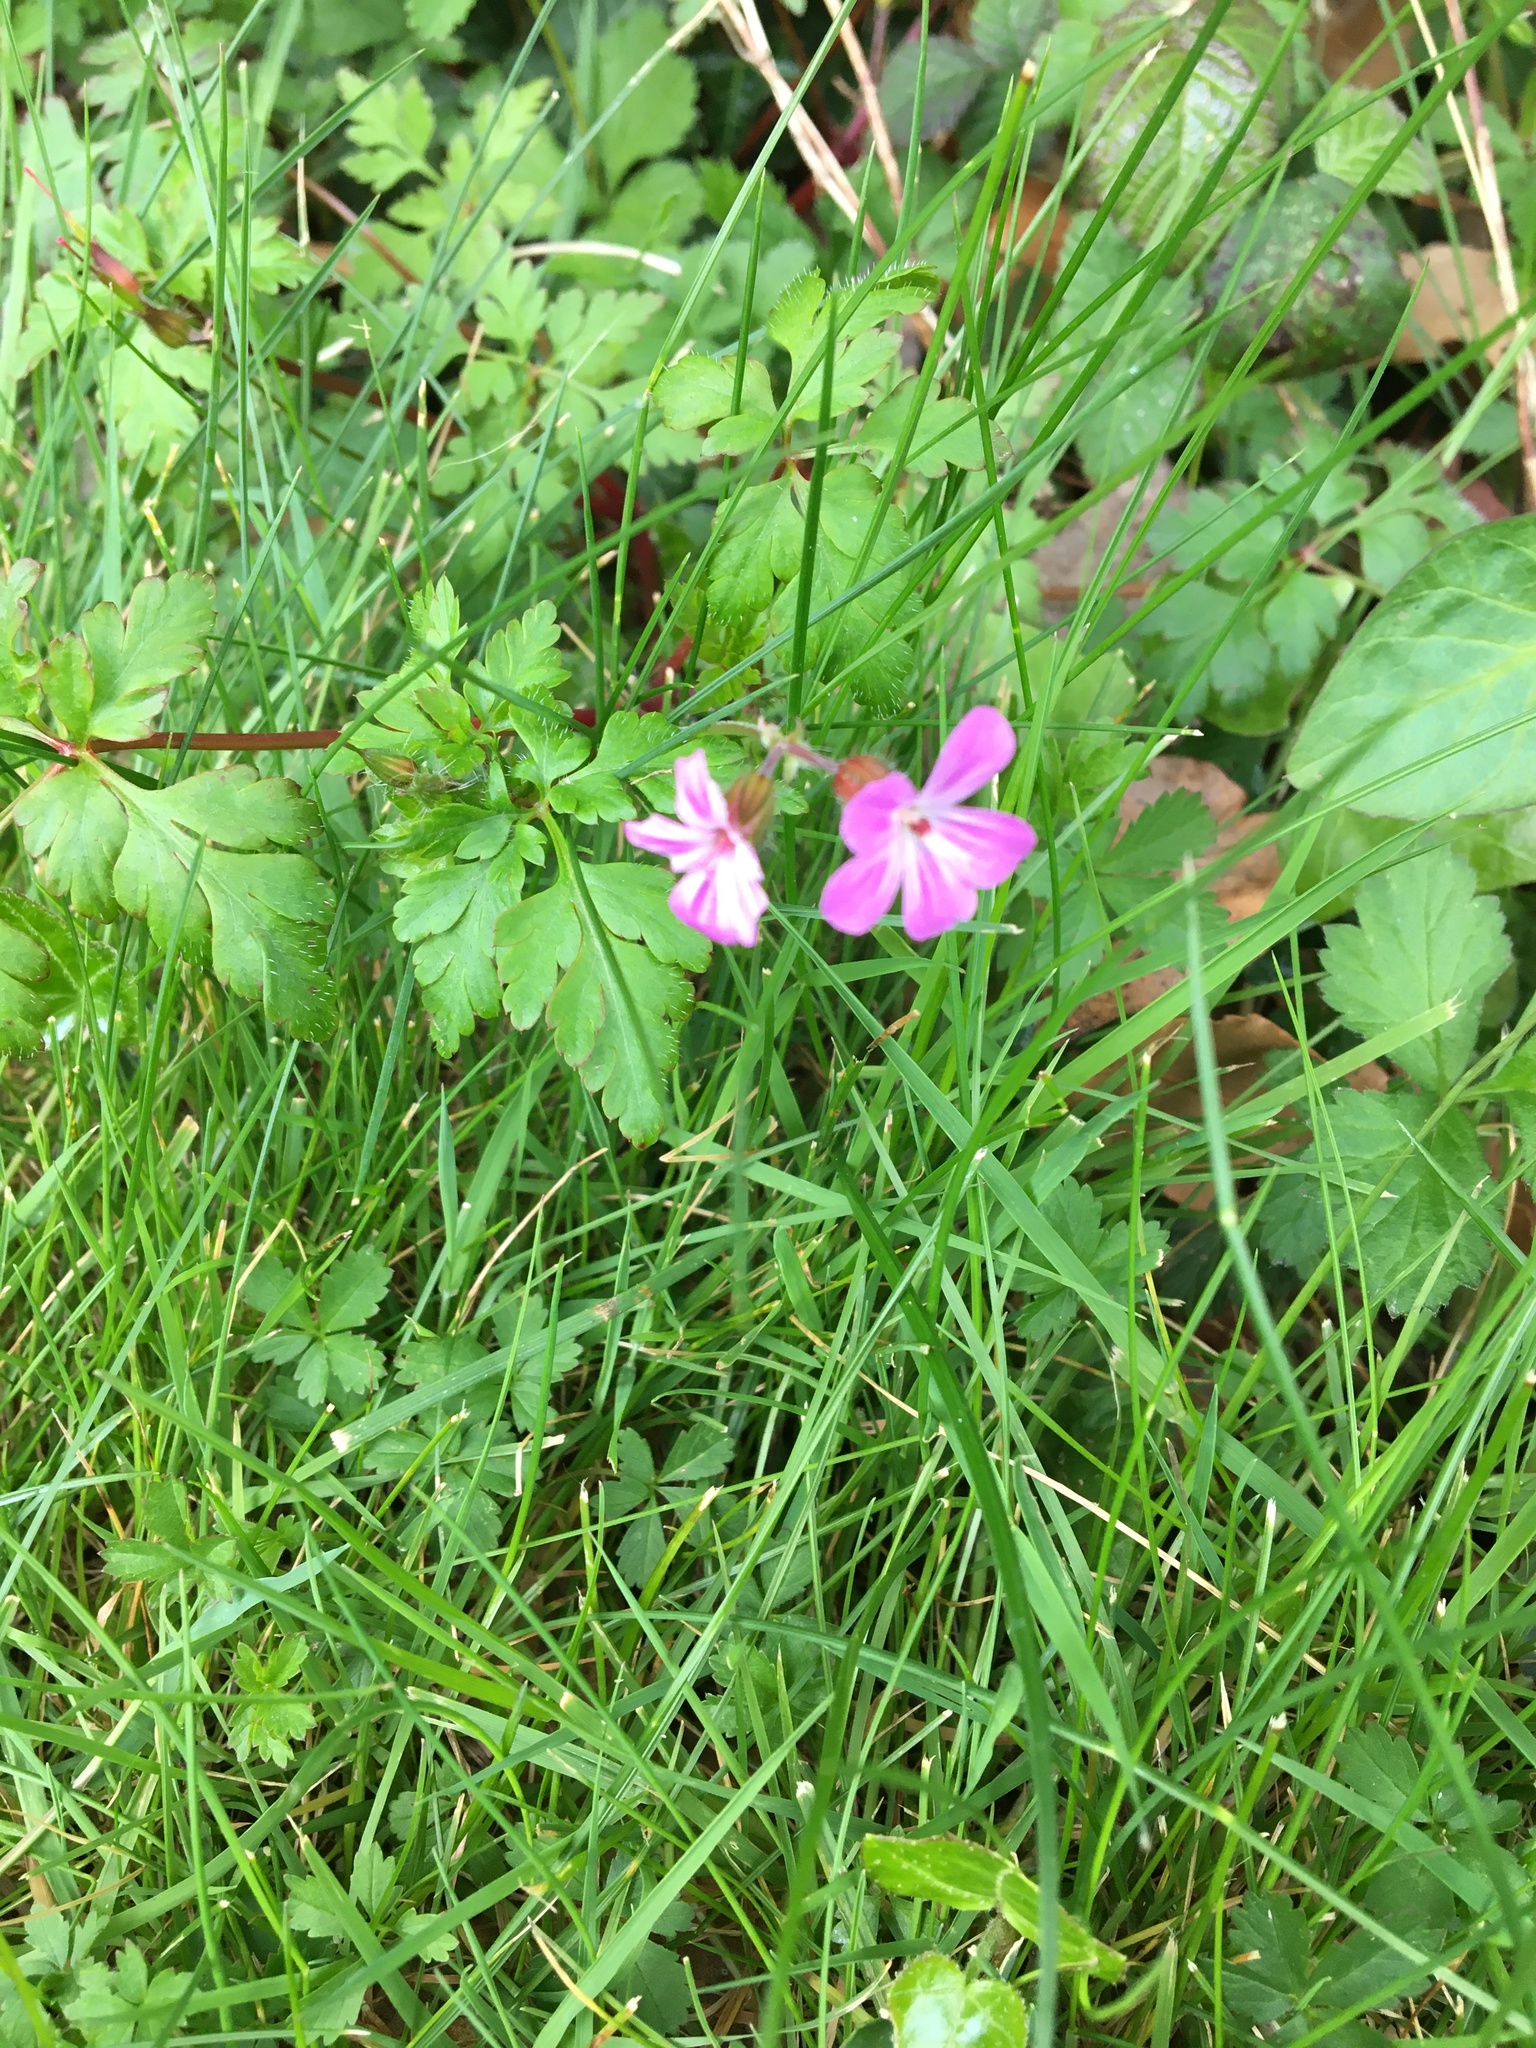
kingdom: Plantae
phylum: Tracheophyta
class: Magnoliopsida
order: Geraniales
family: Geraniaceae
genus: Geranium
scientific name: Geranium robertianum
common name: Herb-robert
